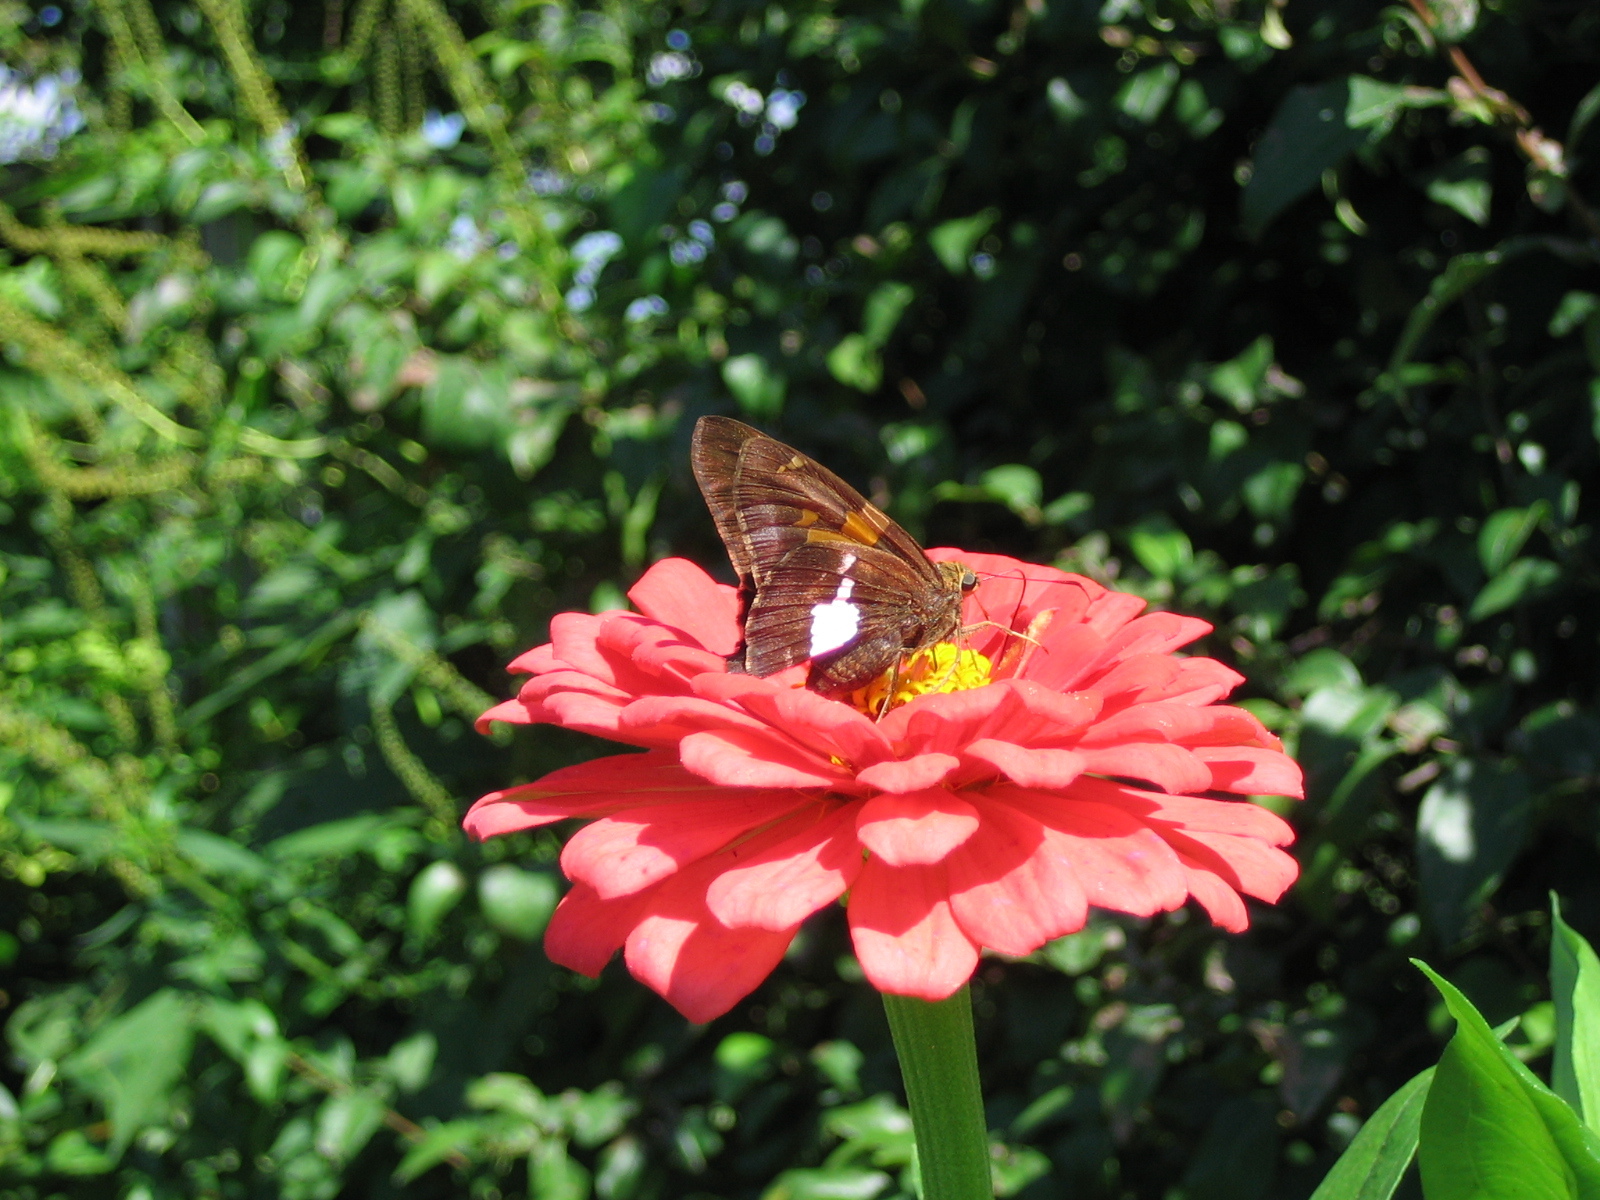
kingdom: Animalia
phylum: Arthropoda
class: Insecta
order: Lepidoptera
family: Hesperiidae
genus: Epargyreus
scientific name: Epargyreus clarus
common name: Silver-spotted skipper
